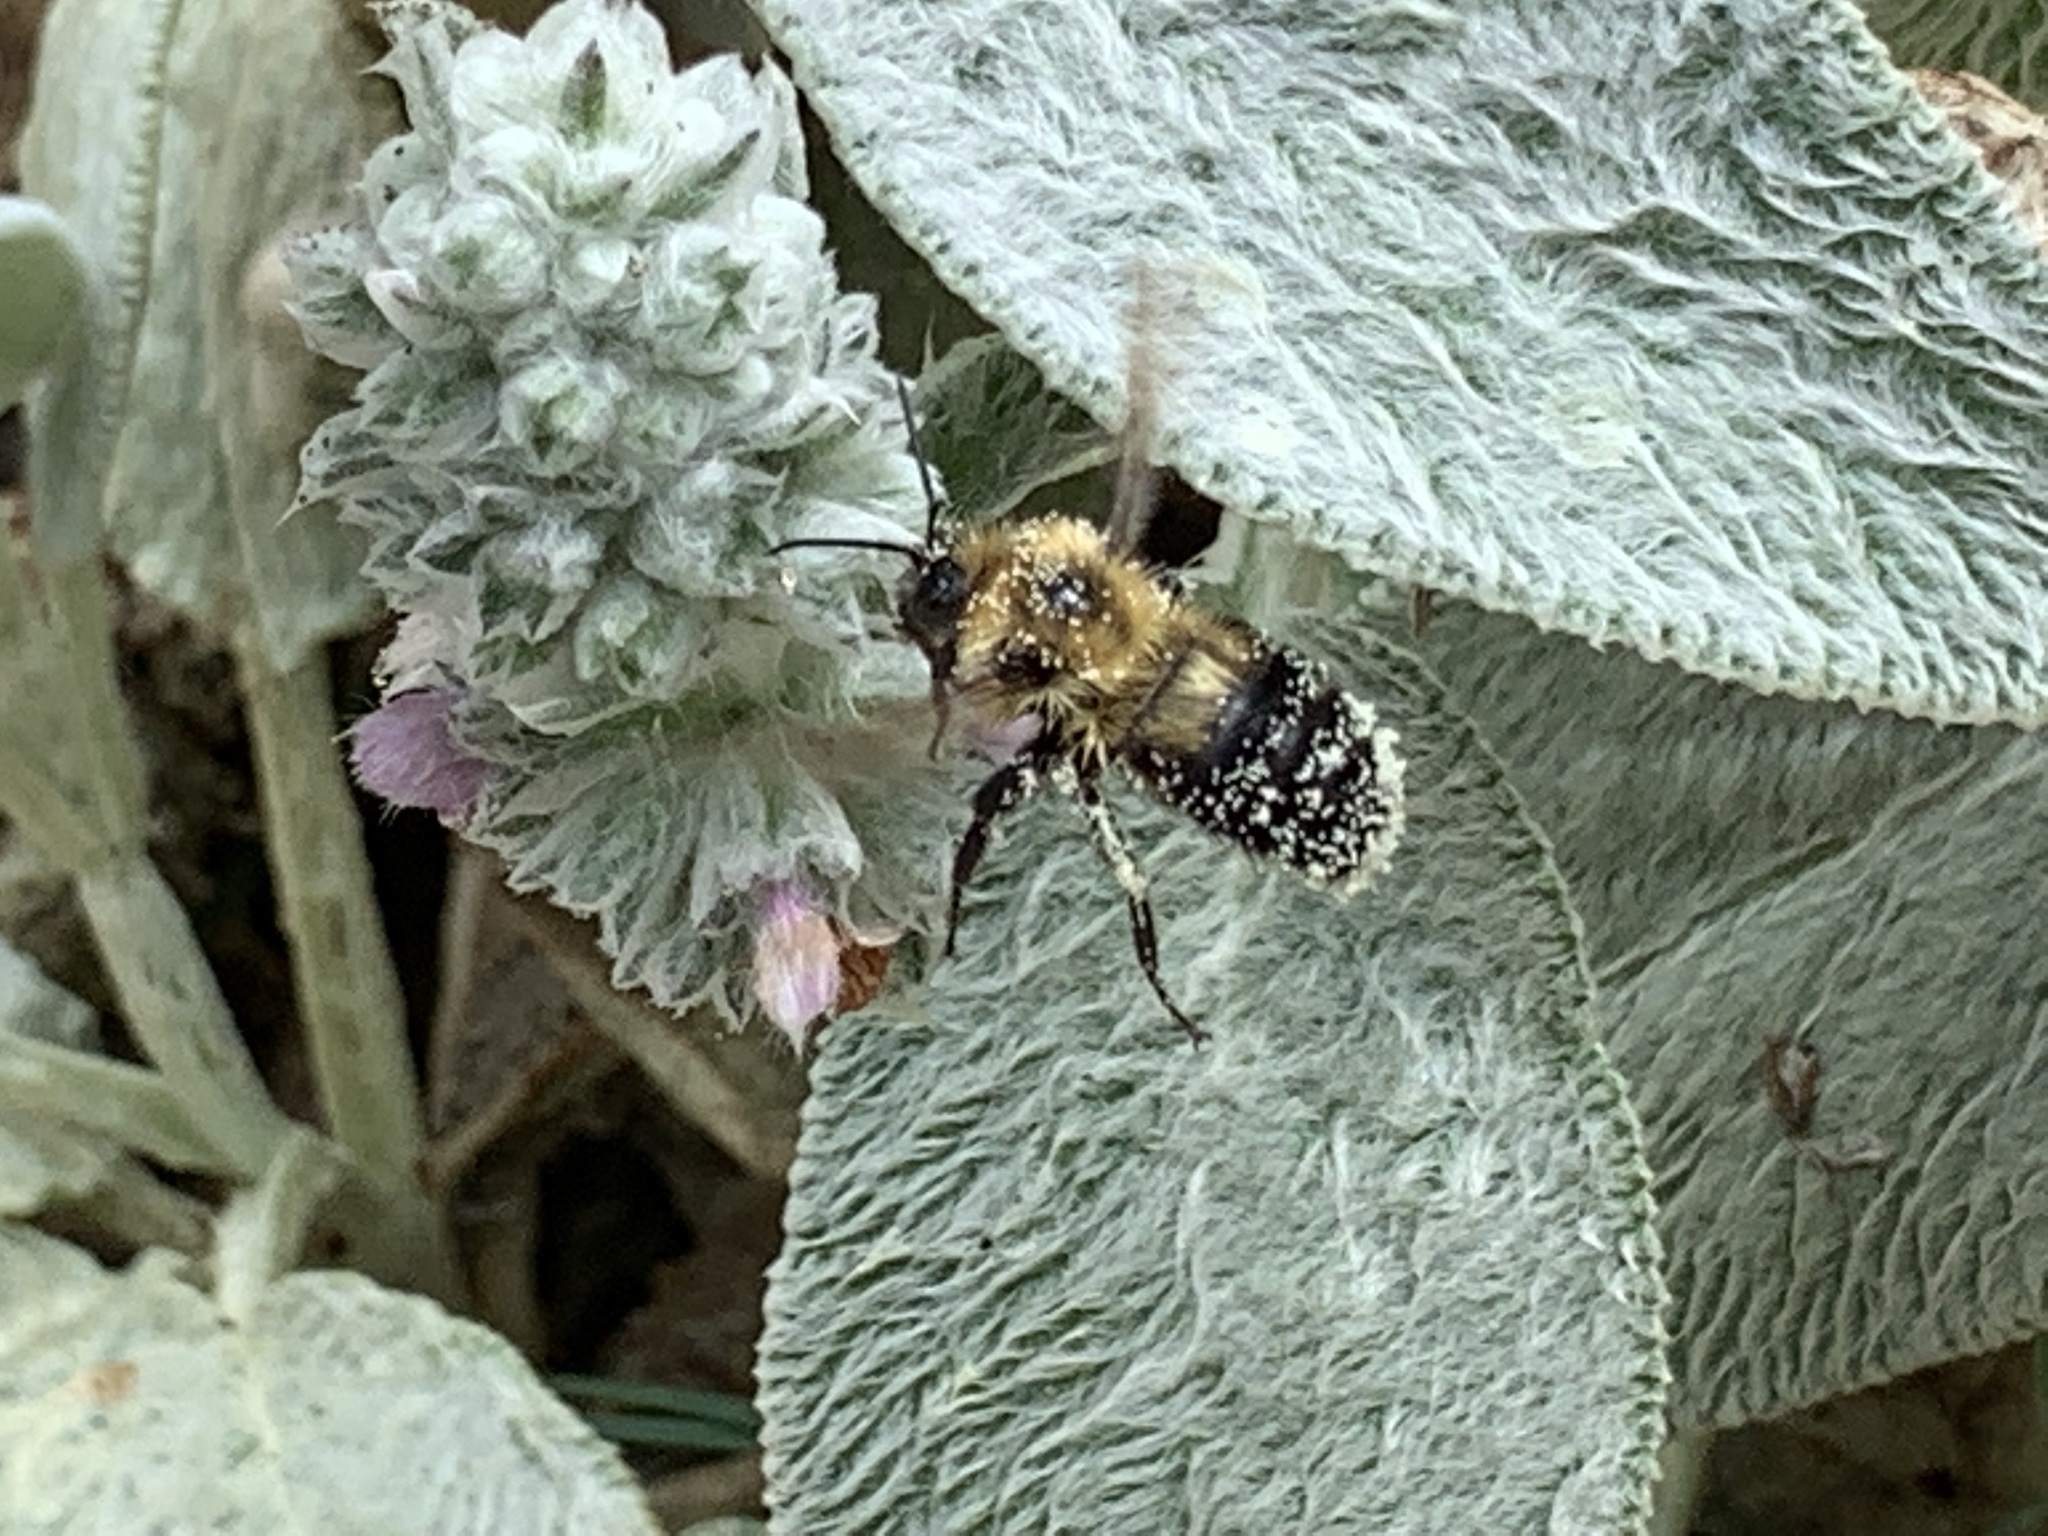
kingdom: Animalia
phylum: Arthropoda
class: Insecta
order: Hymenoptera
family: Apidae
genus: Bombus
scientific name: Bombus bimaculatus
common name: Two-spotted bumble bee
